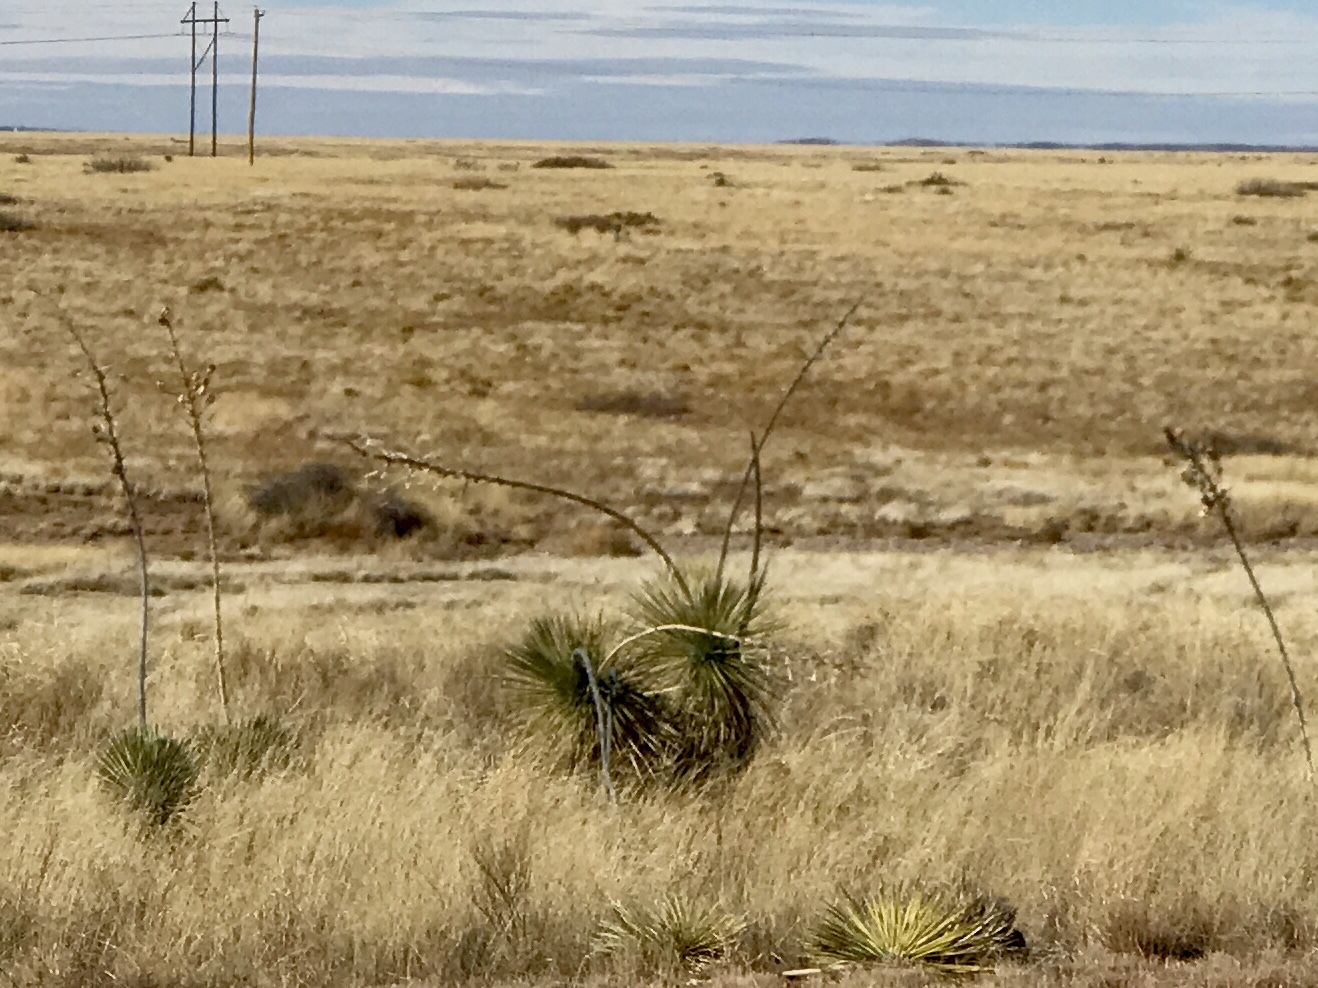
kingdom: Plantae
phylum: Tracheophyta
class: Liliopsida
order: Asparagales
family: Asparagaceae
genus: Yucca
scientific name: Yucca elata
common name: Palmella
